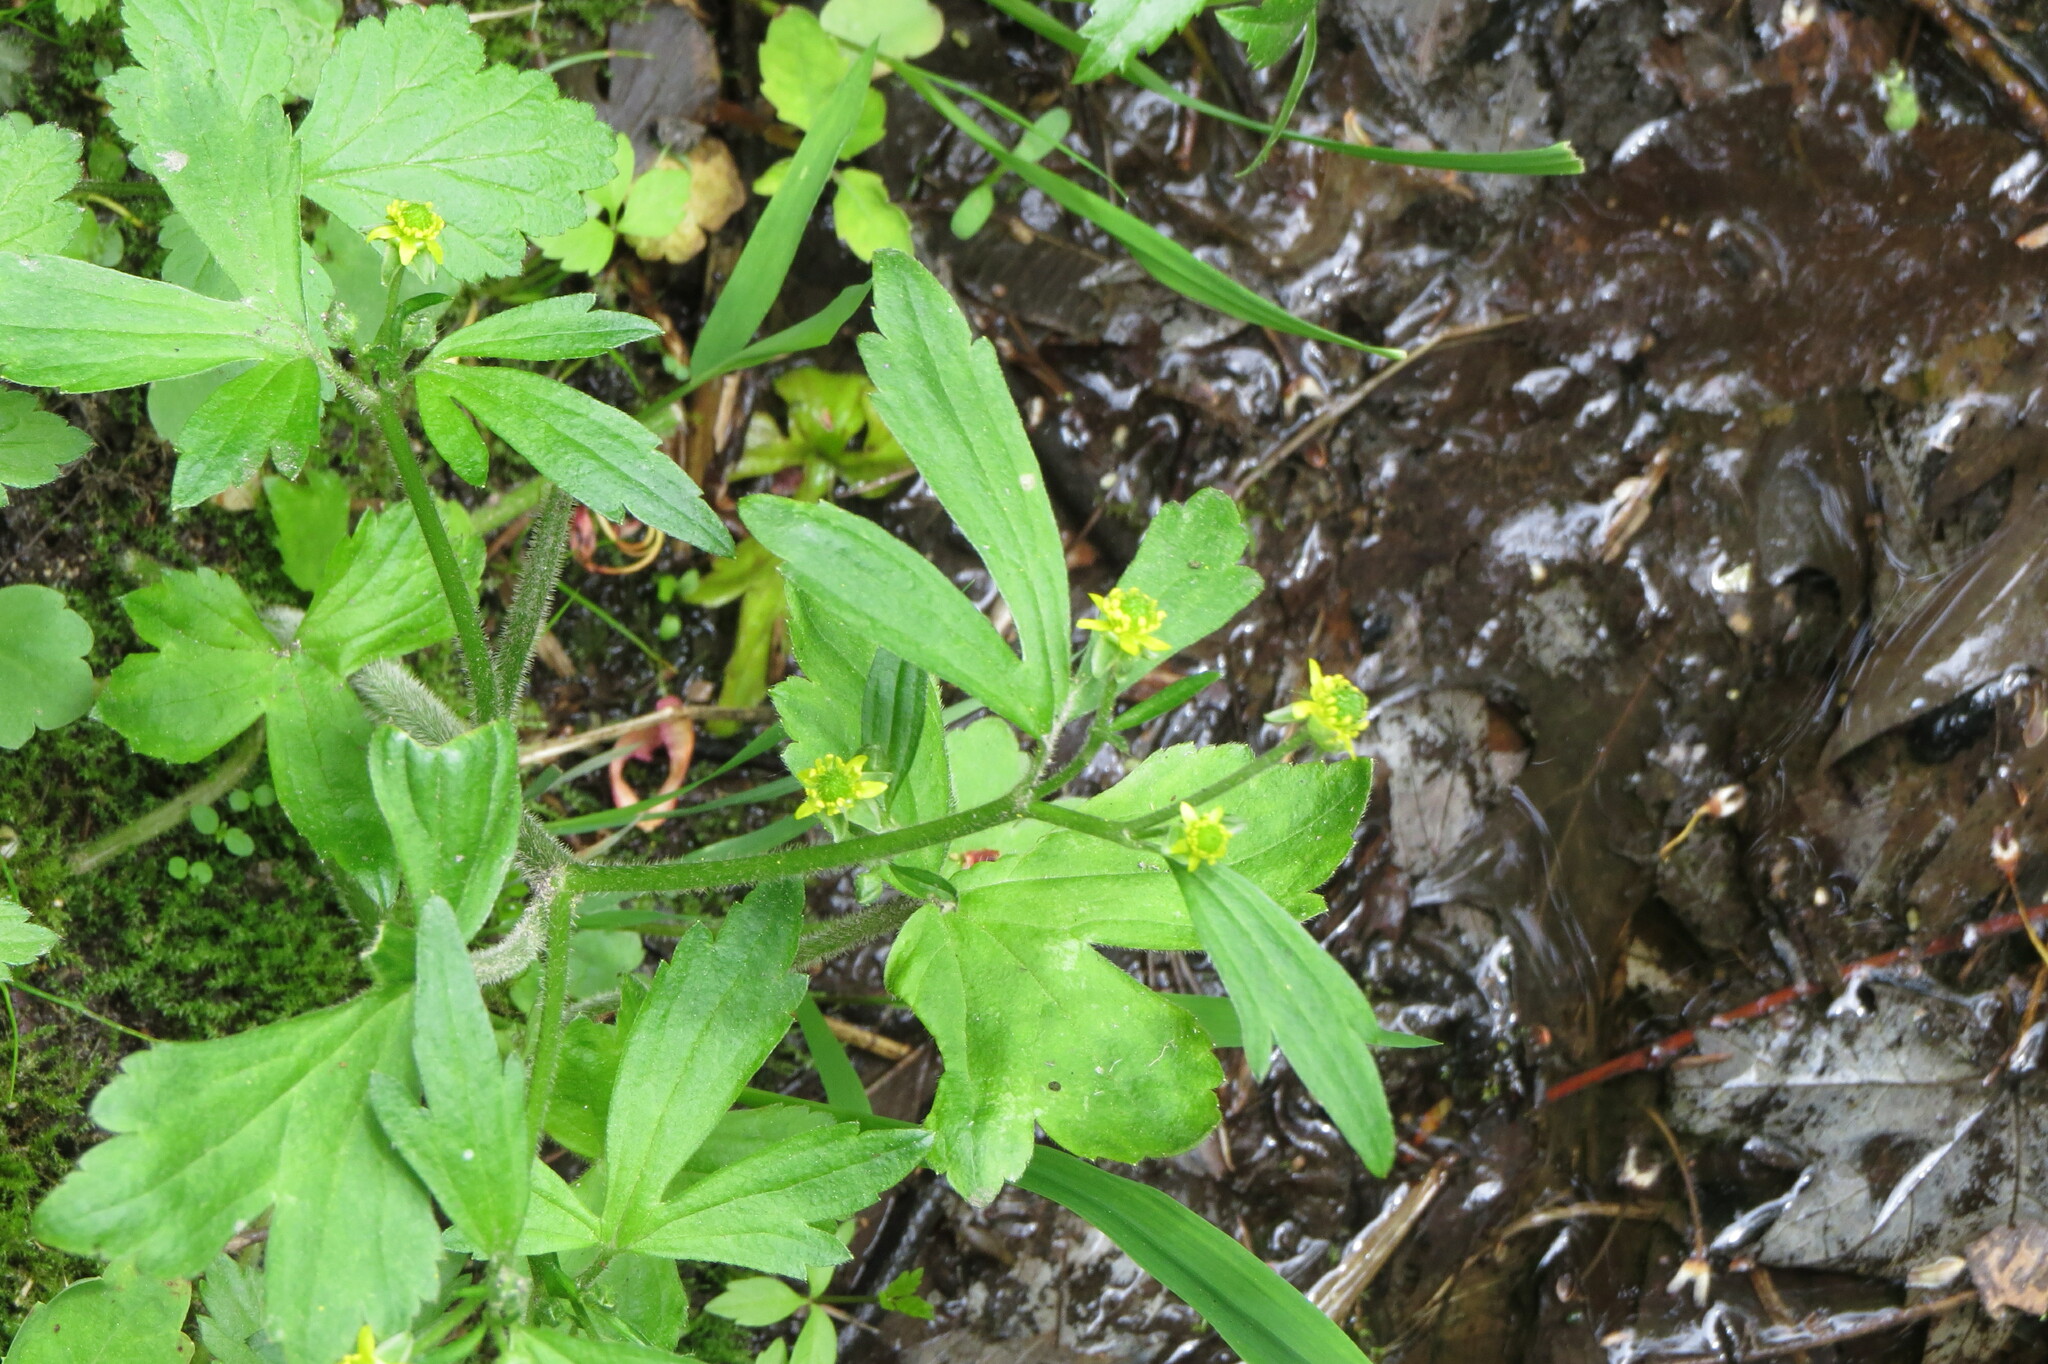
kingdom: Plantae
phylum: Tracheophyta
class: Magnoliopsida
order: Ranunculales
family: Ranunculaceae
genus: Ranunculus
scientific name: Ranunculus recurvatus
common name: Blisterwort
